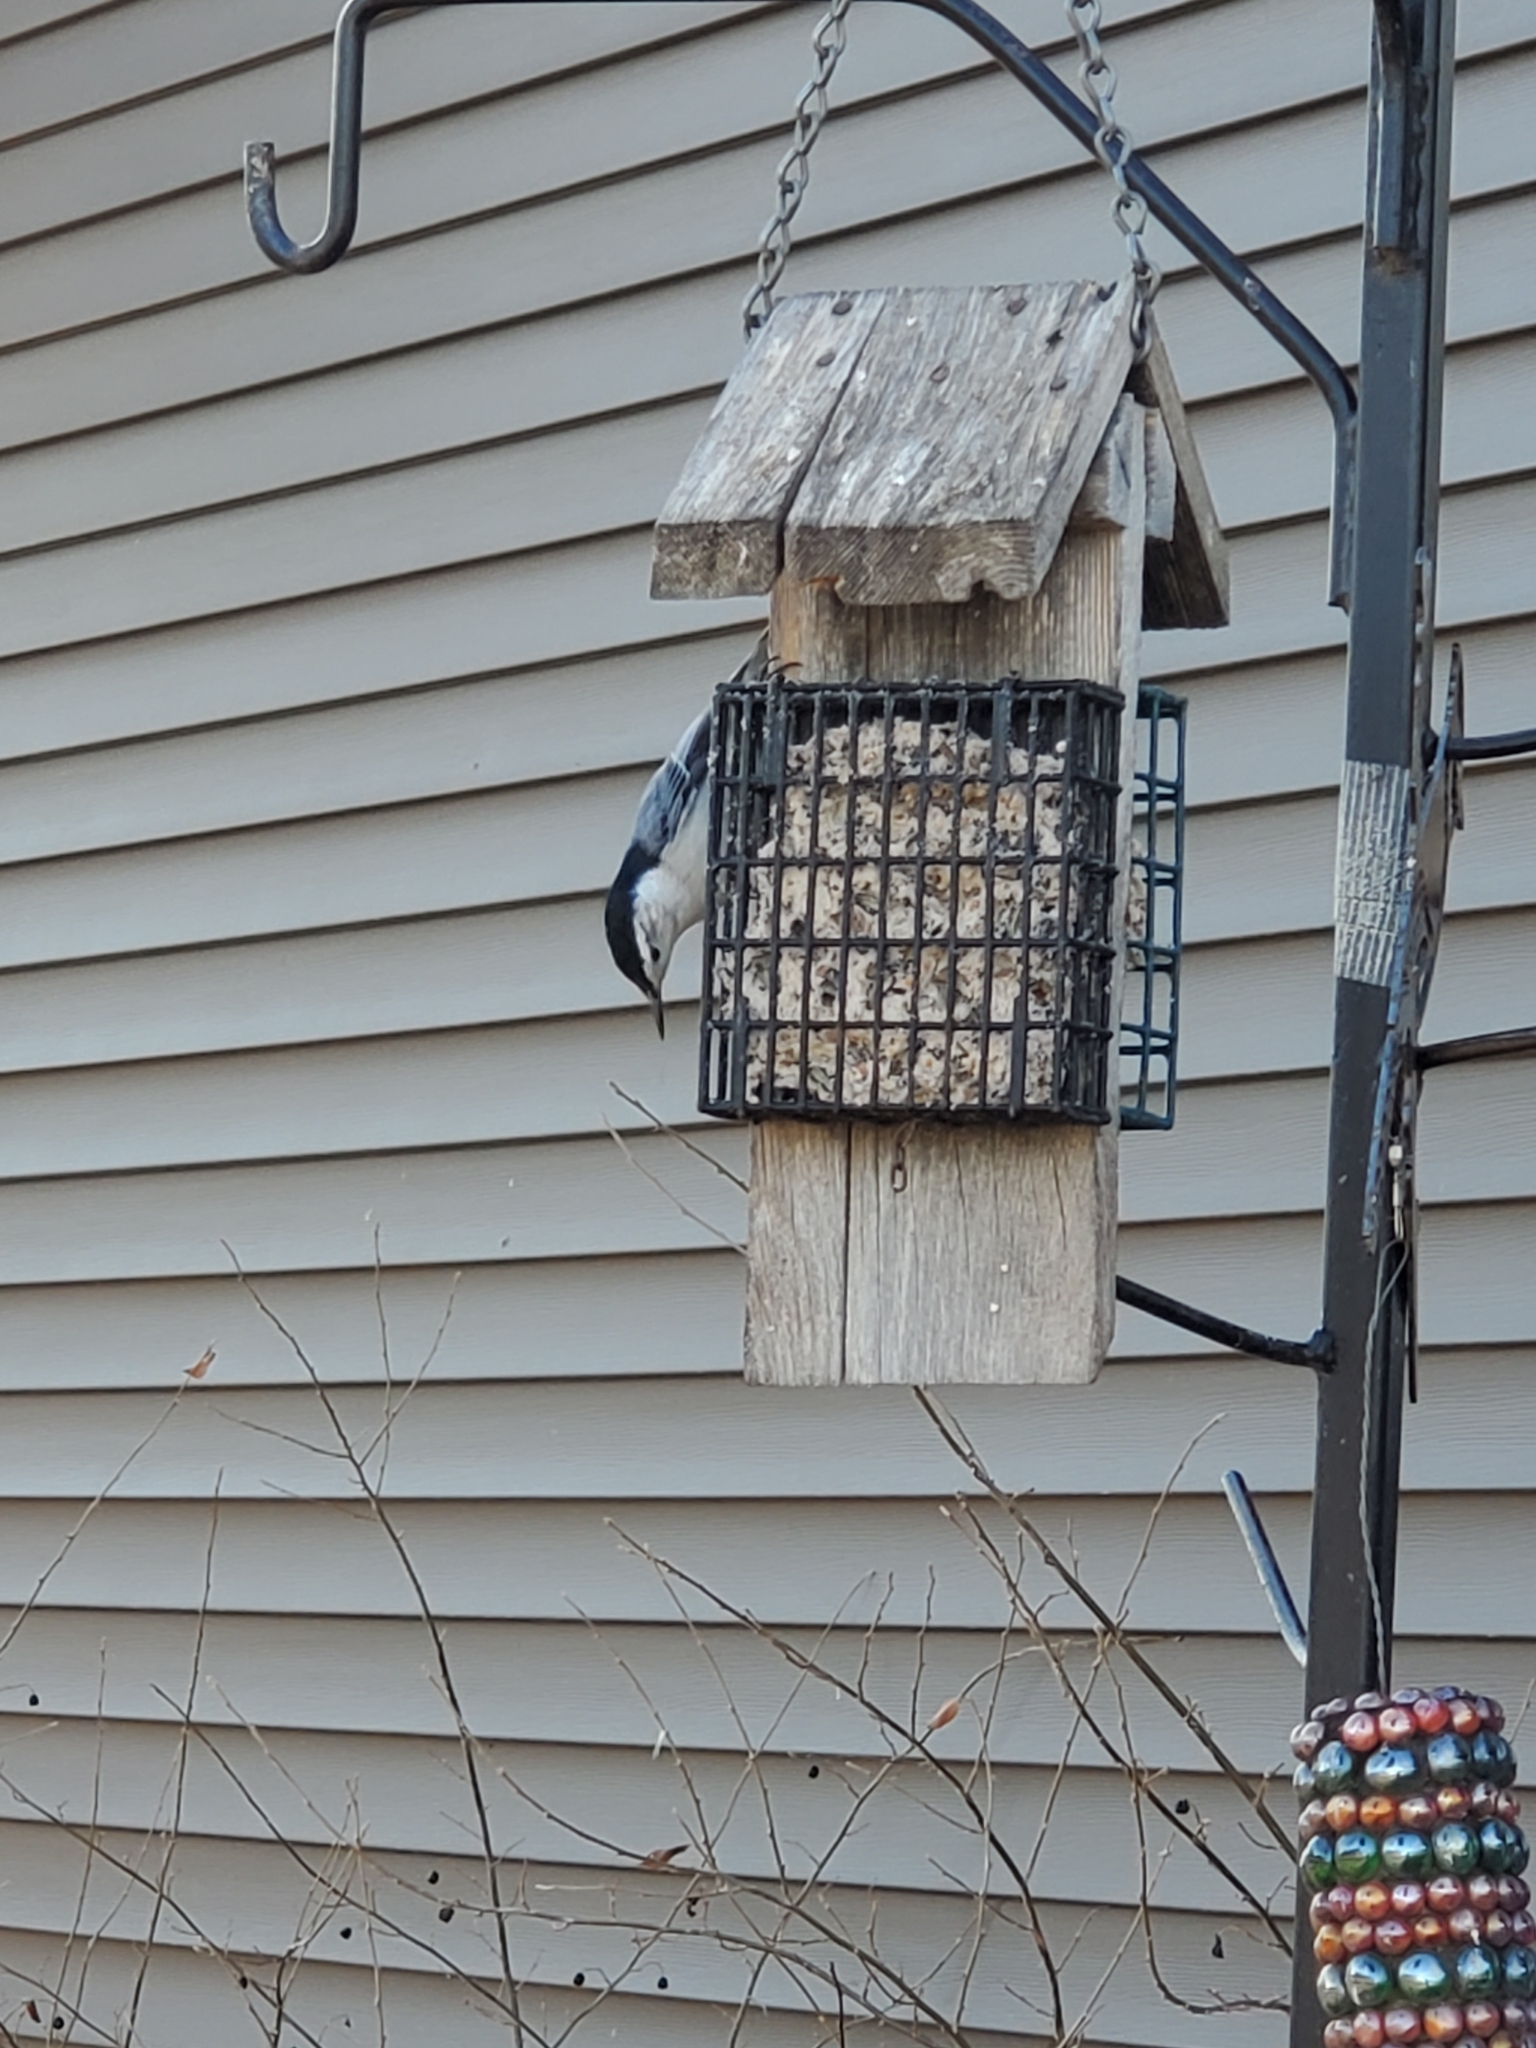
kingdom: Animalia
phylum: Chordata
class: Aves
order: Passeriformes
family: Sittidae
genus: Sitta
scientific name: Sitta carolinensis
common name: White-breasted nuthatch
